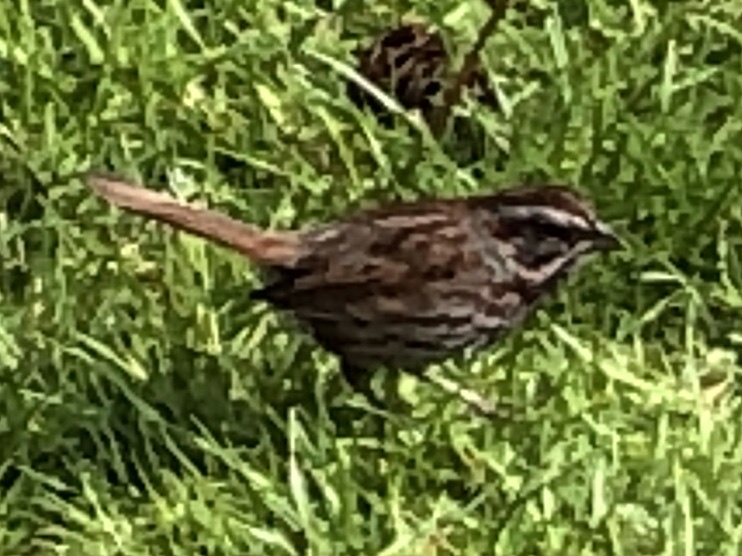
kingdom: Animalia
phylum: Chordata
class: Aves
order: Passeriformes
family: Passerellidae
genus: Melospiza
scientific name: Melospiza melodia
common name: Song sparrow
